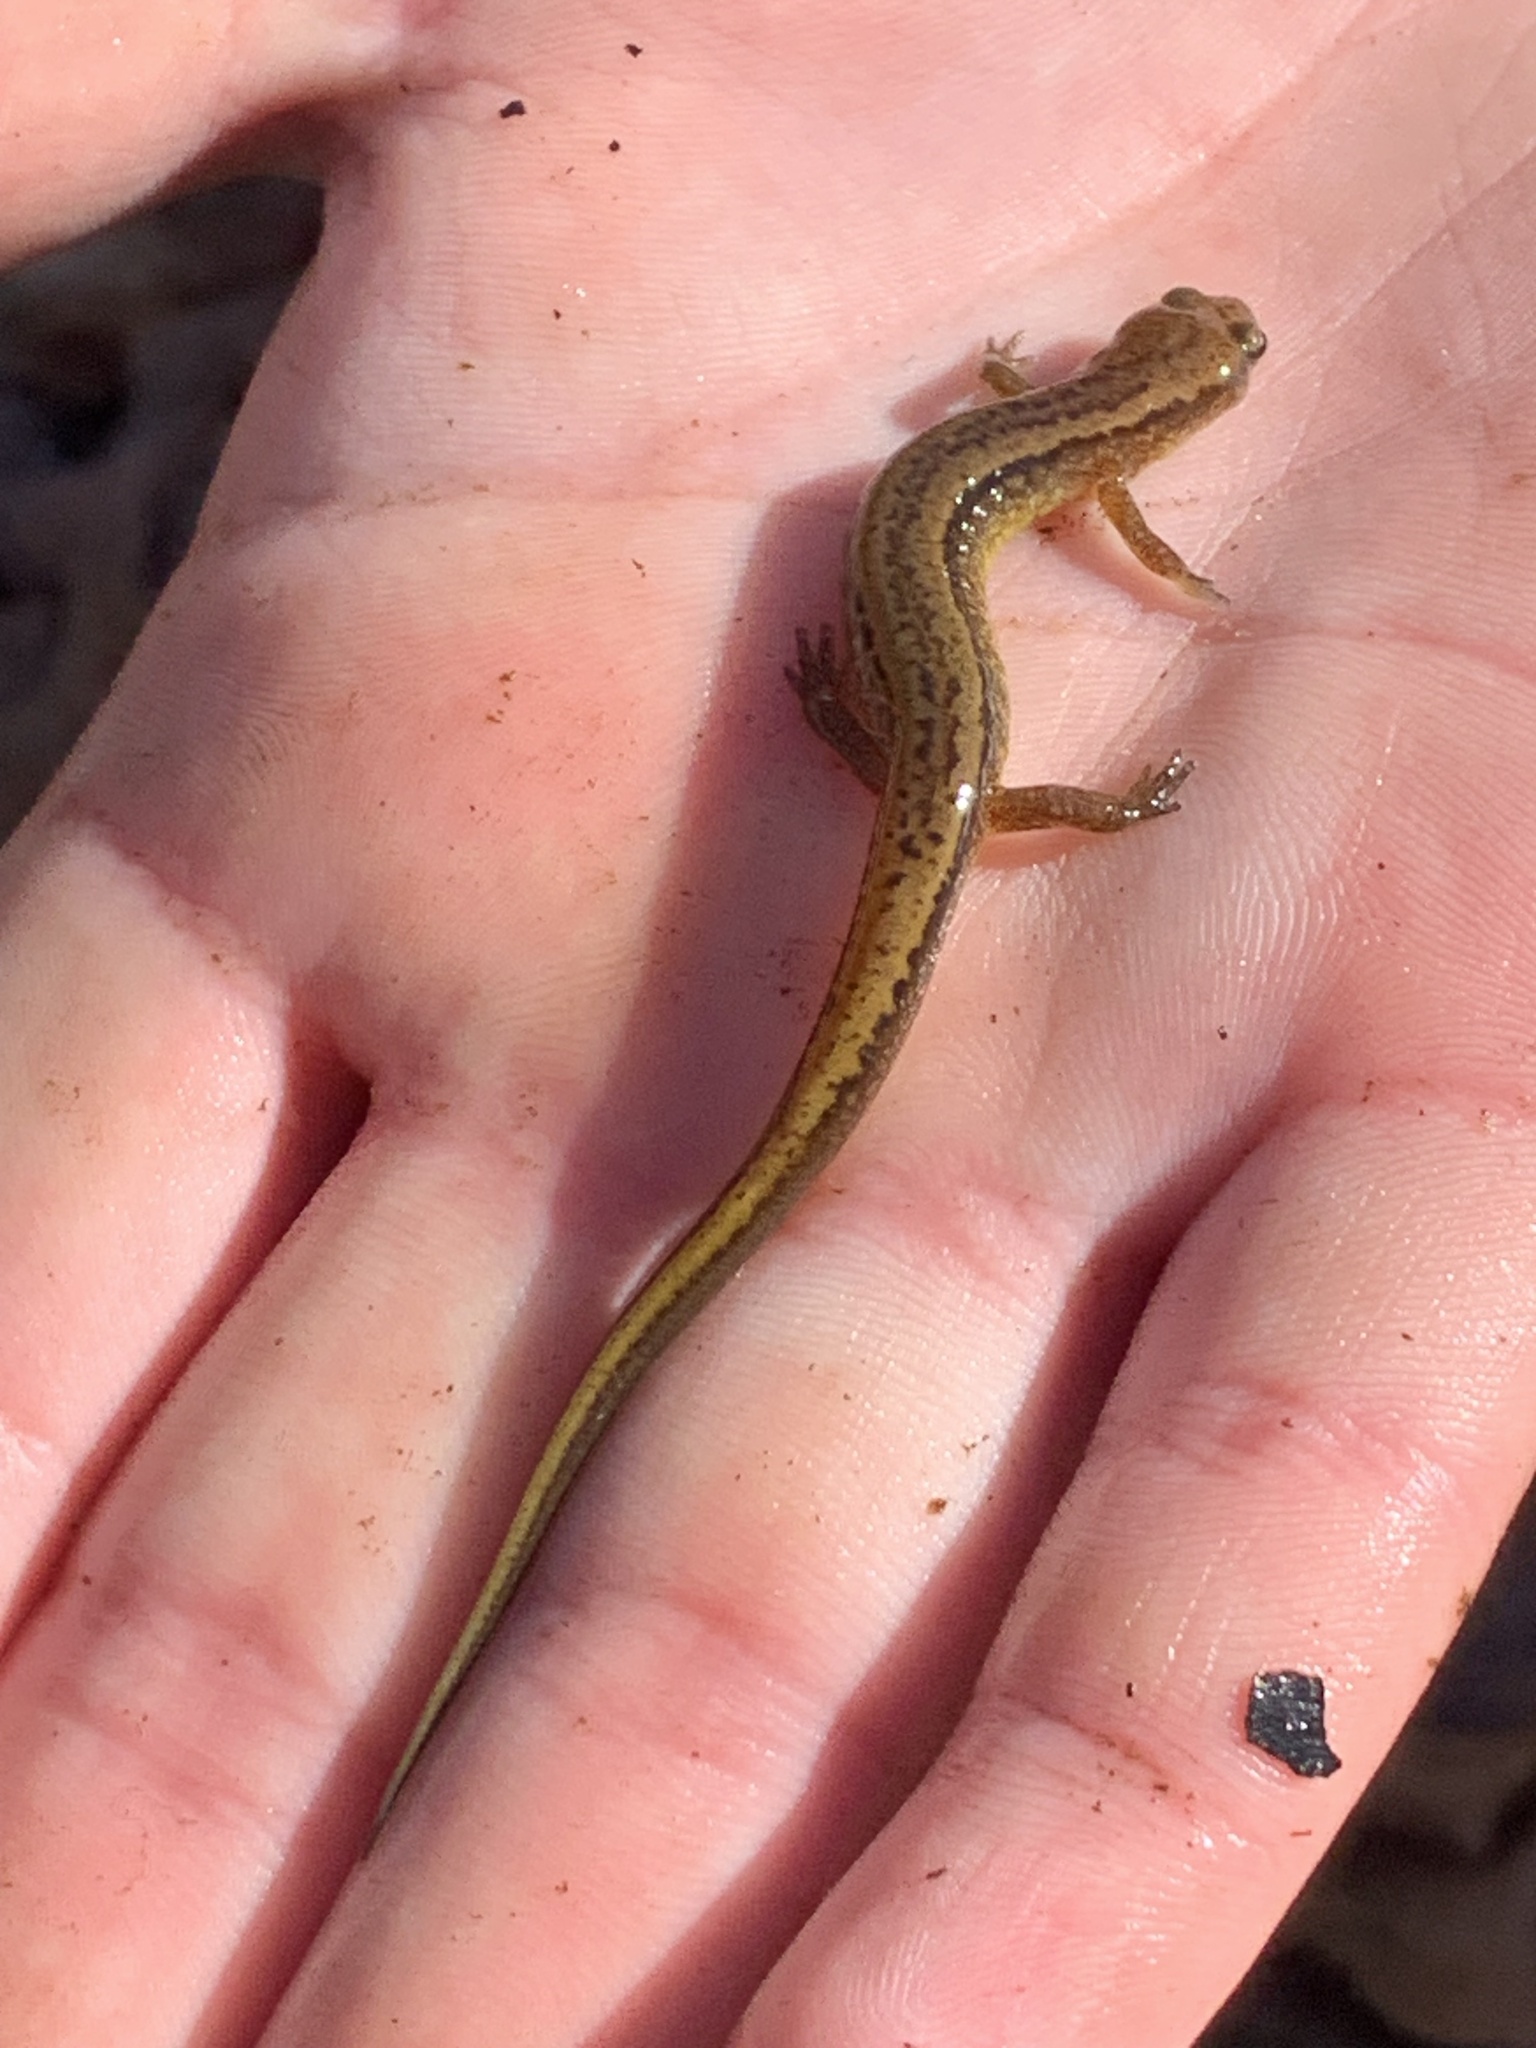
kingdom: Animalia
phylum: Chordata
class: Amphibia
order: Caudata
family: Plethodontidae
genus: Eurycea
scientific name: Eurycea cirrigera
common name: Southern two-lined salamander
